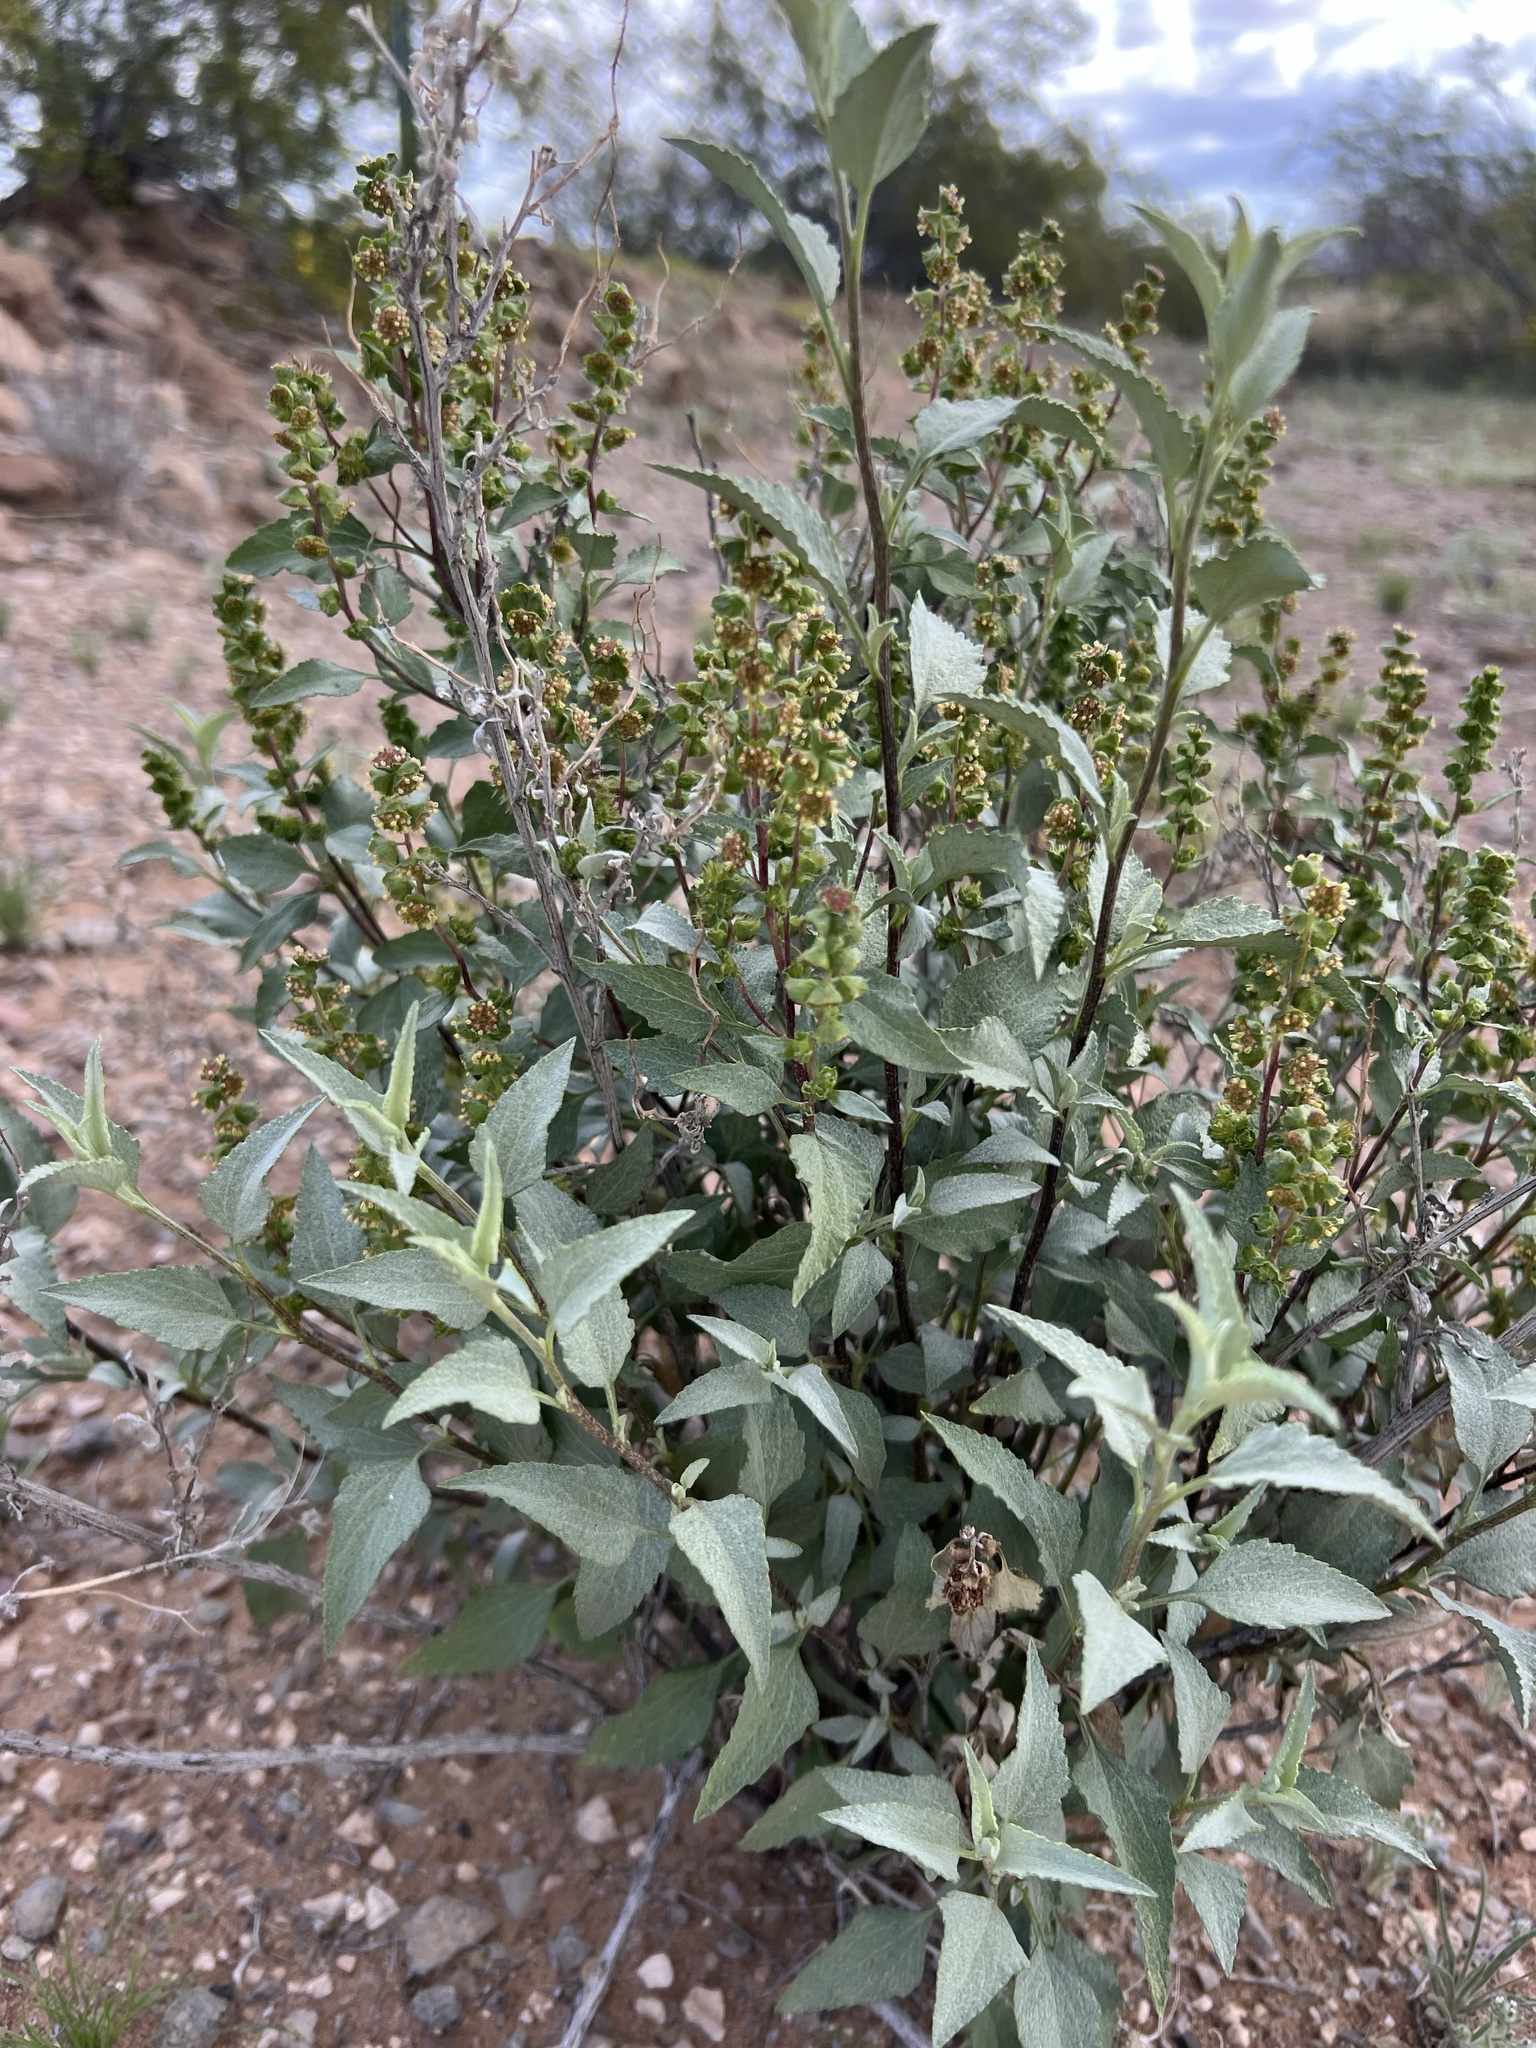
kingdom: Plantae
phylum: Tracheophyta
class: Magnoliopsida
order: Asterales
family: Asteraceae
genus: Ambrosia
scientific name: Ambrosia ambrosioides
